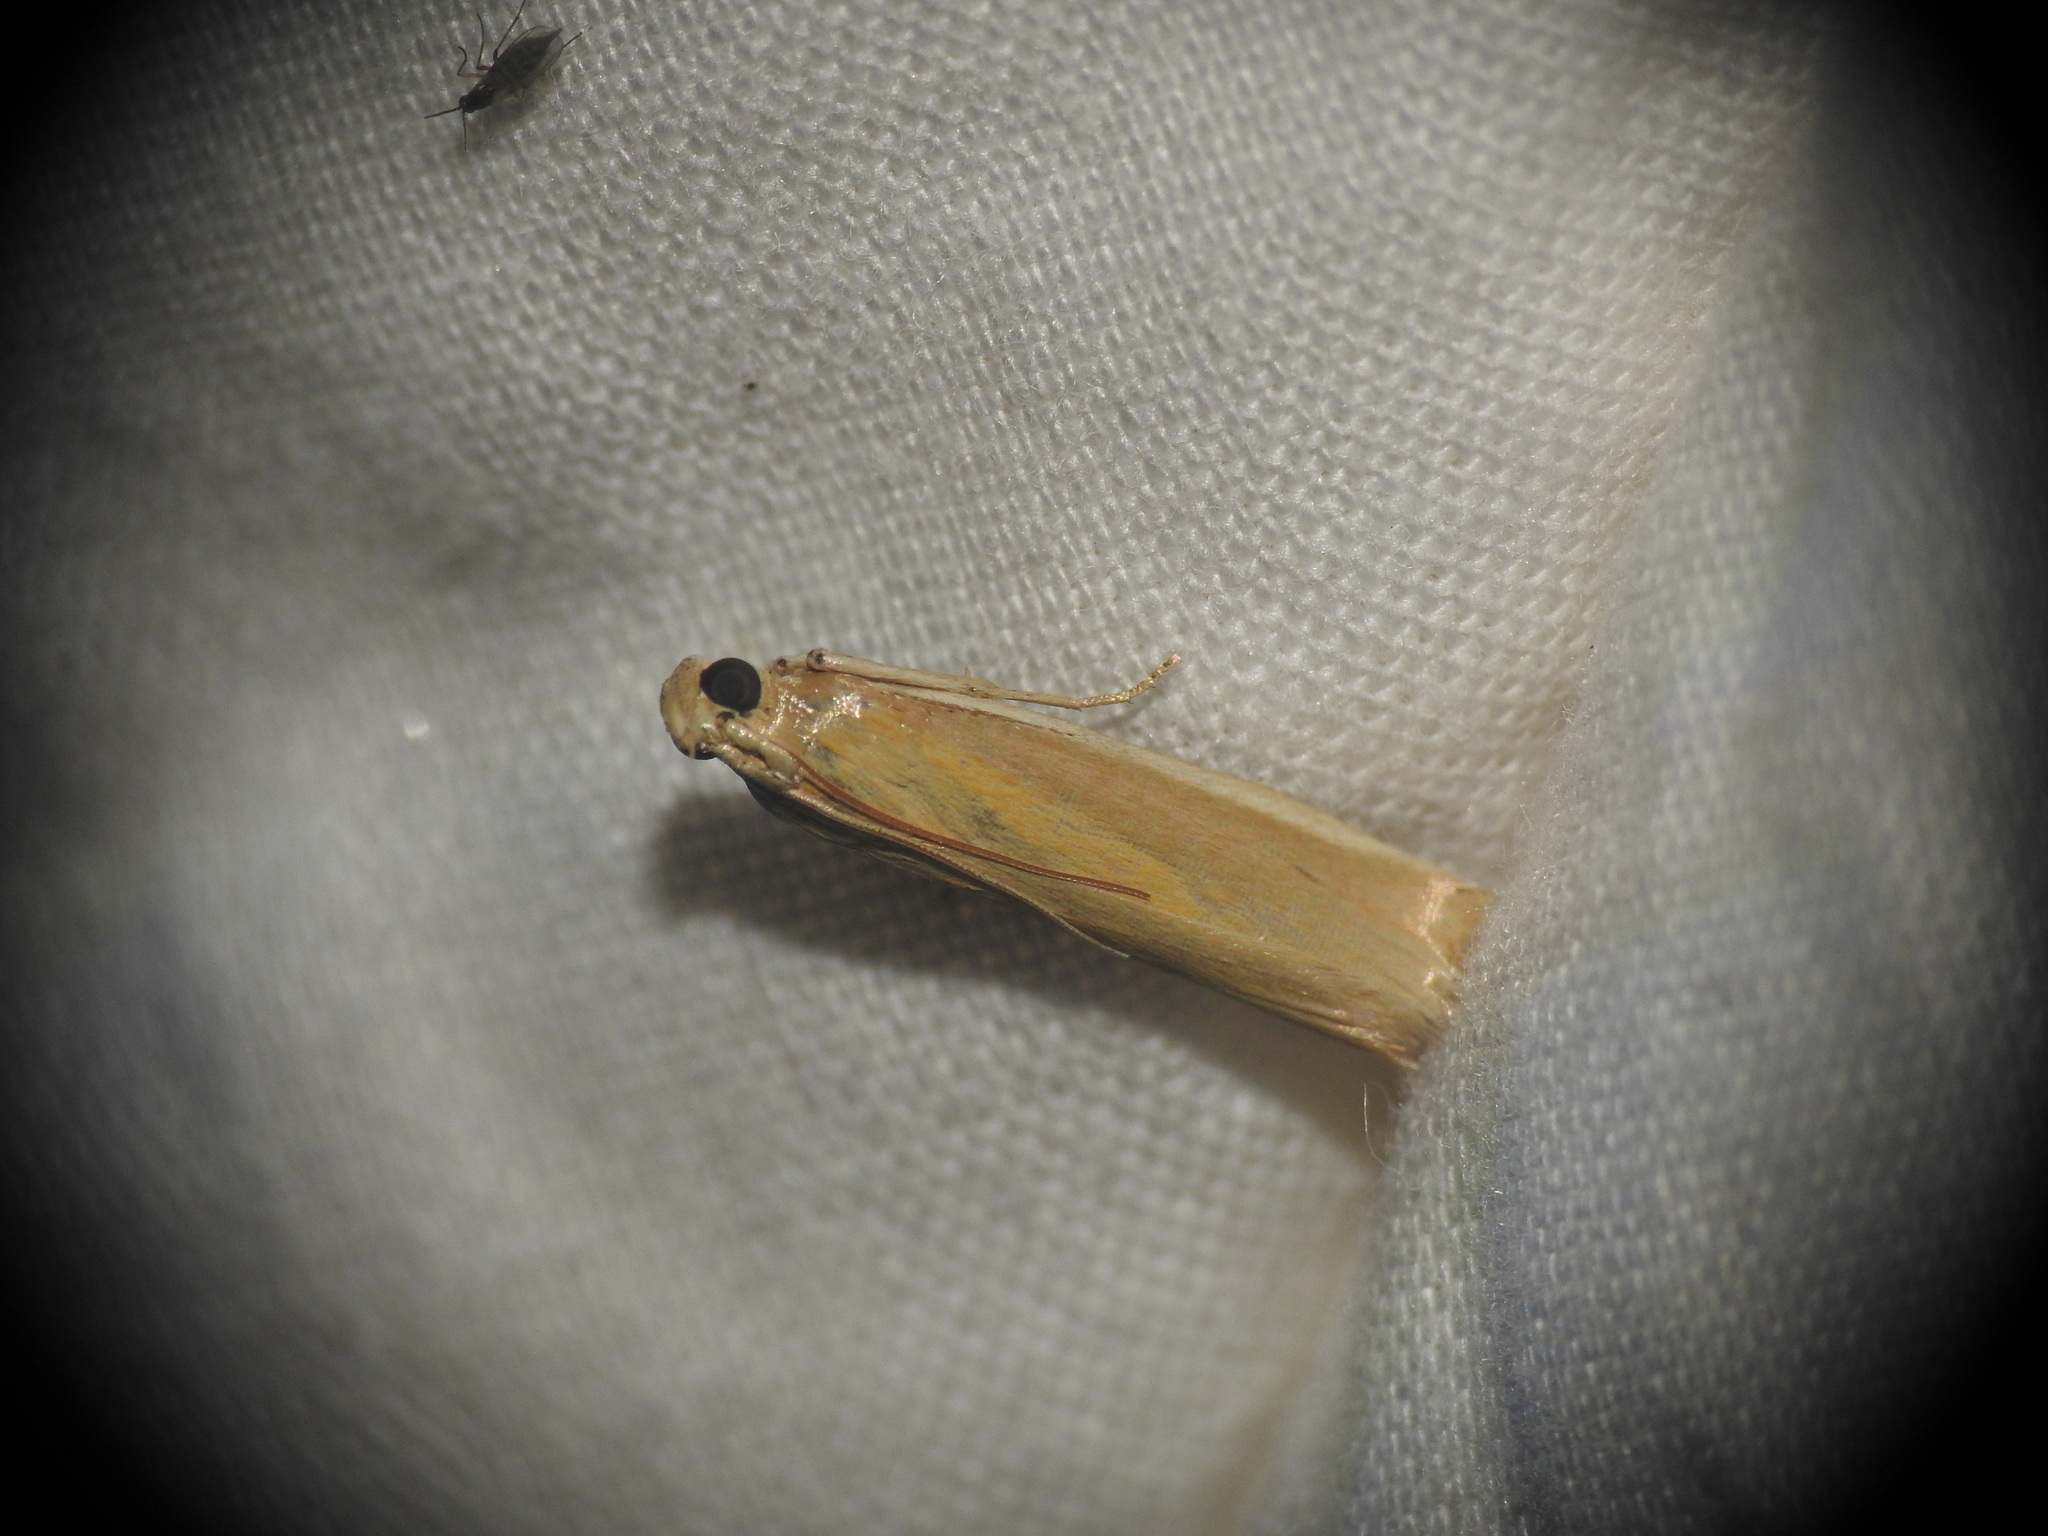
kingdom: Animalia
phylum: Arthropoda
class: Insecta
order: Lepidoptera
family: Pyralidae
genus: Oncocera
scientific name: Oncocera semirubella
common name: Rosy-striped knot-horn
